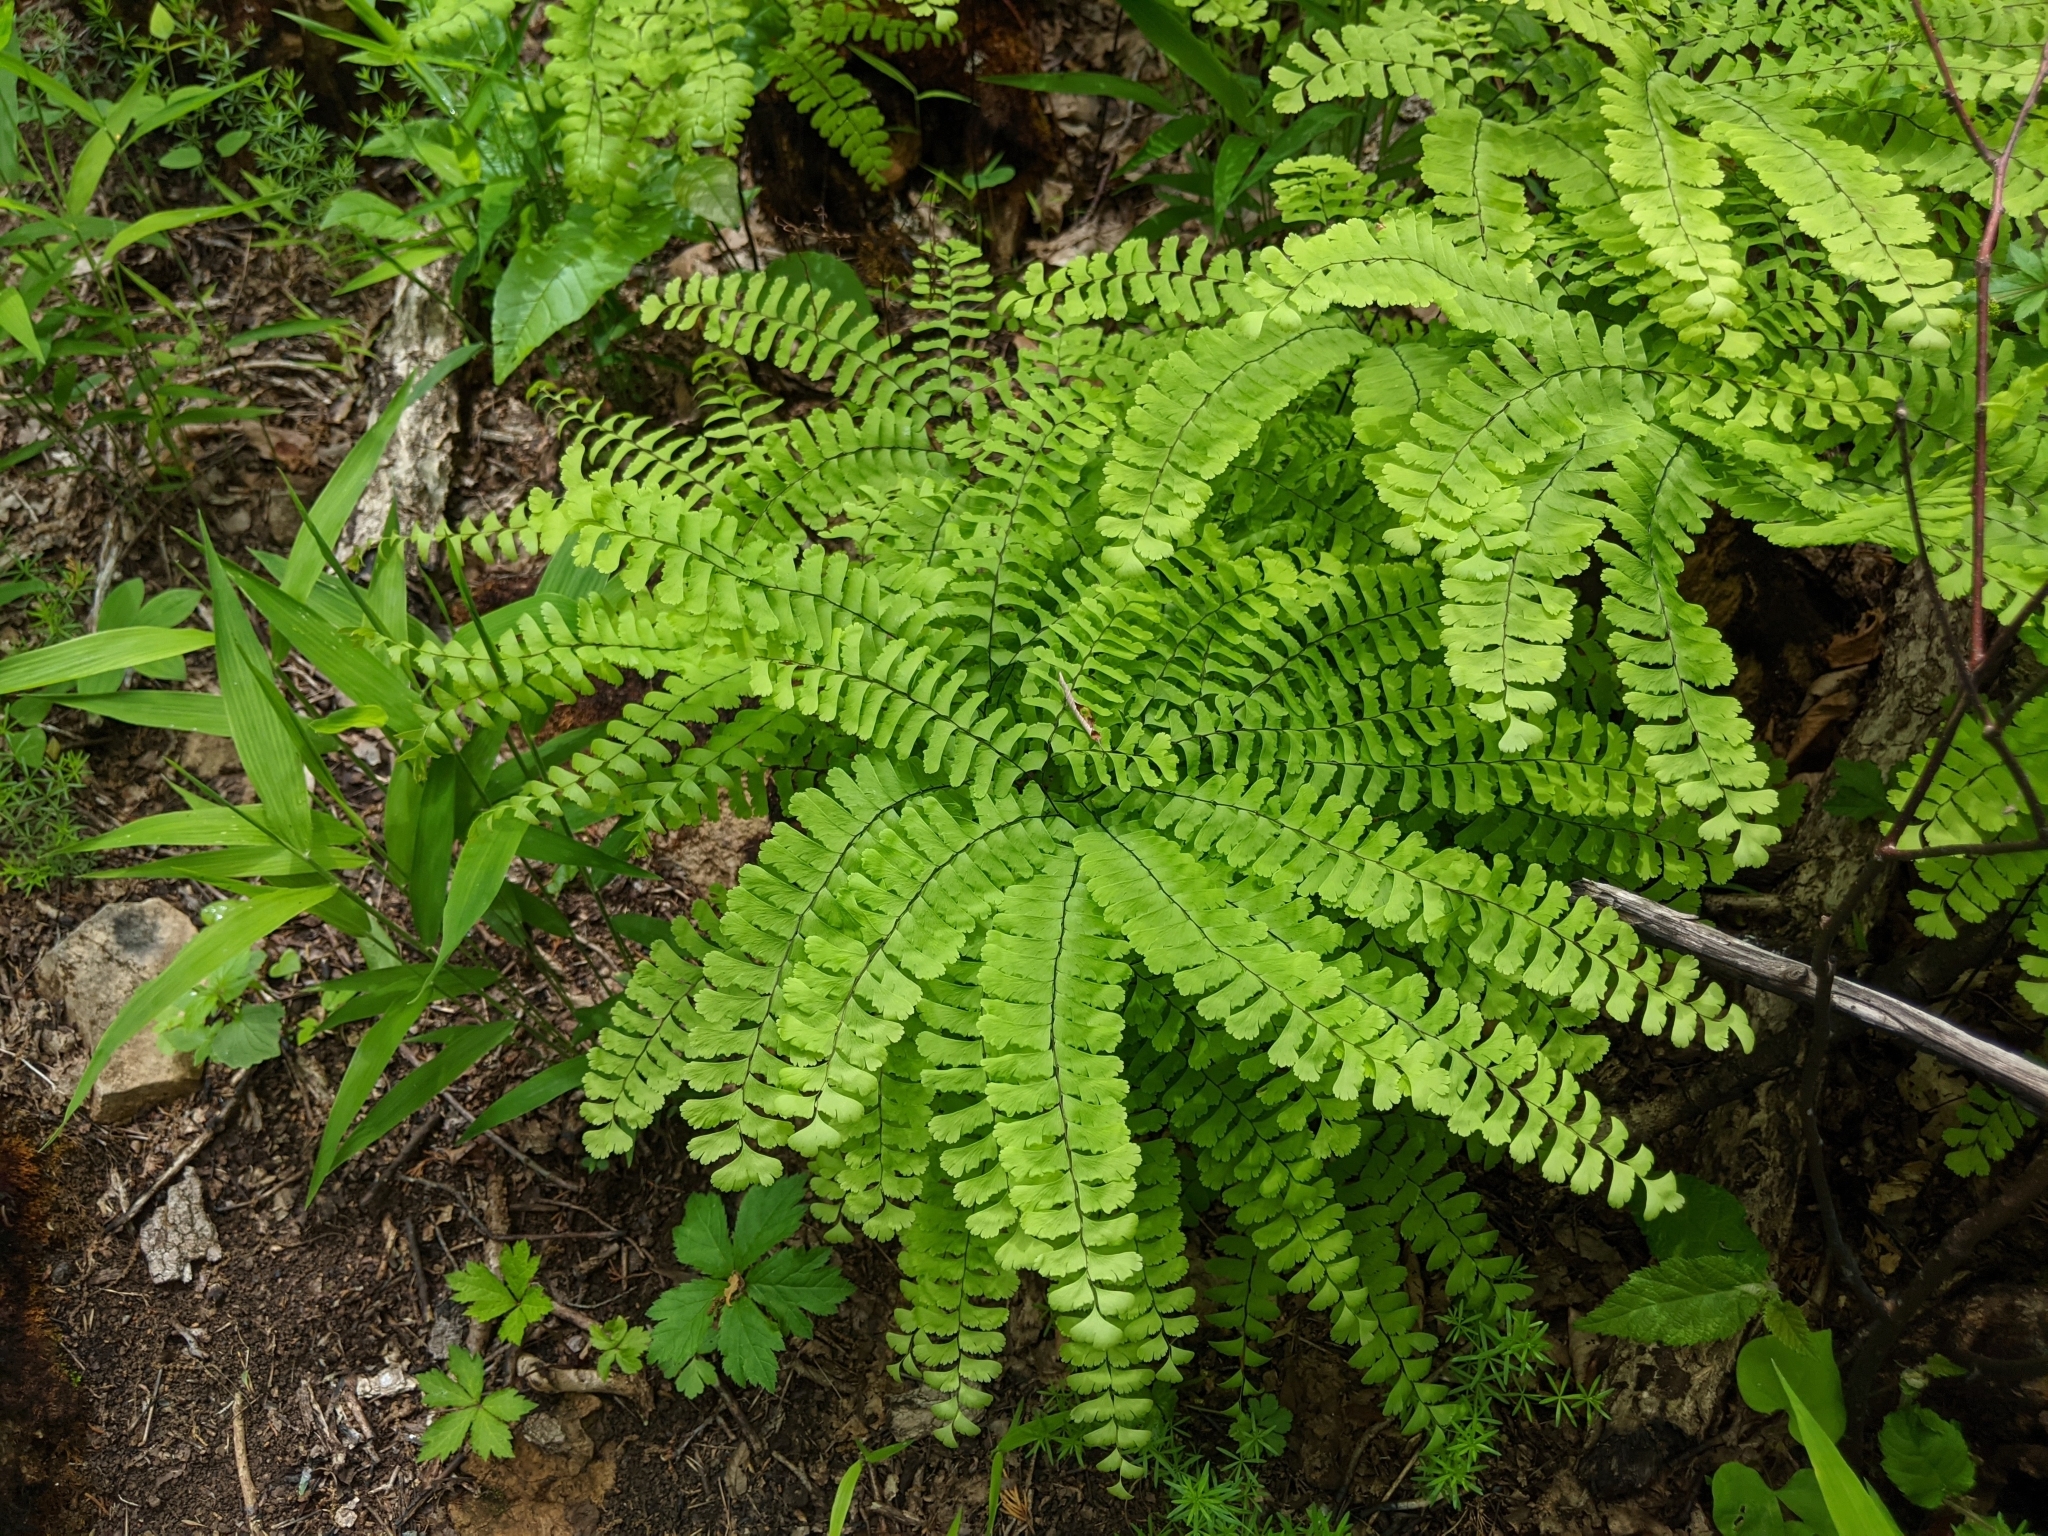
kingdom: Plantae
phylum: Tracheophyta
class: Polypodiopsida
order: Polypodiales
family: Pteridaceae
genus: Adiantum
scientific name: Adiantum pedatum
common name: Five-finger fern
